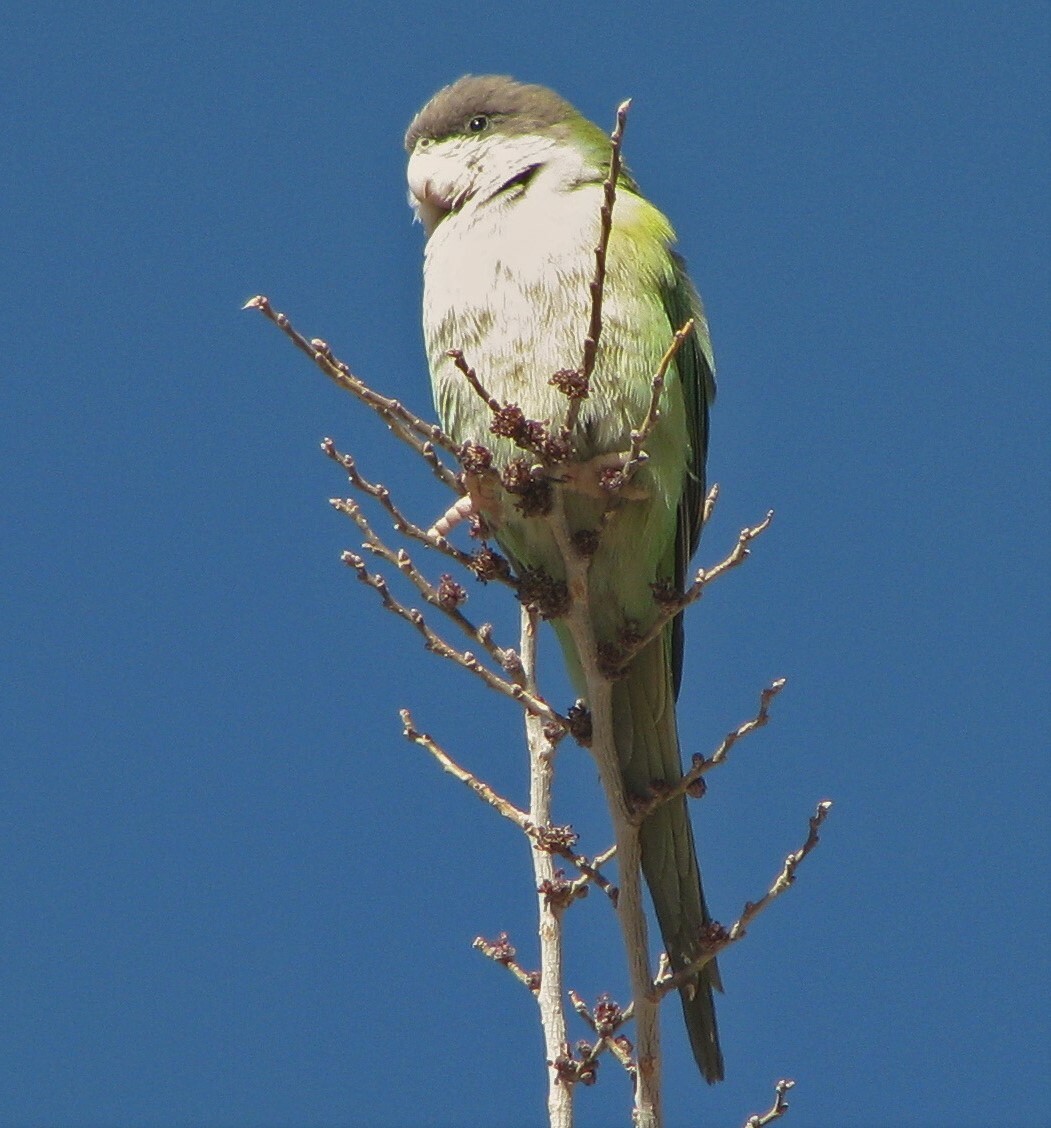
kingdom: Animalia
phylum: Chordata
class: Aves
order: Psittaciformes
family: Psittacidae
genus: Psilopsiagon
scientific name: Psilopsiagon aymara
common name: Grey-hooded parakeet
